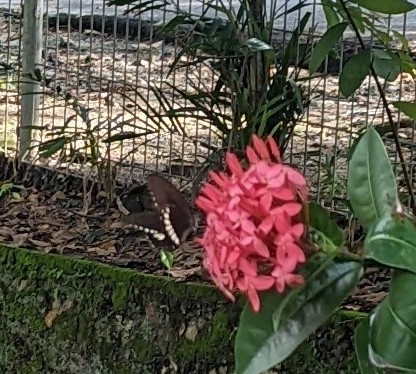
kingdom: Animalia
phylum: Arthropoda
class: Insecta
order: Lepidoptera
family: Papilionidae
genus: Papilio
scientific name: Papilio polytes
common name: Common mormon
